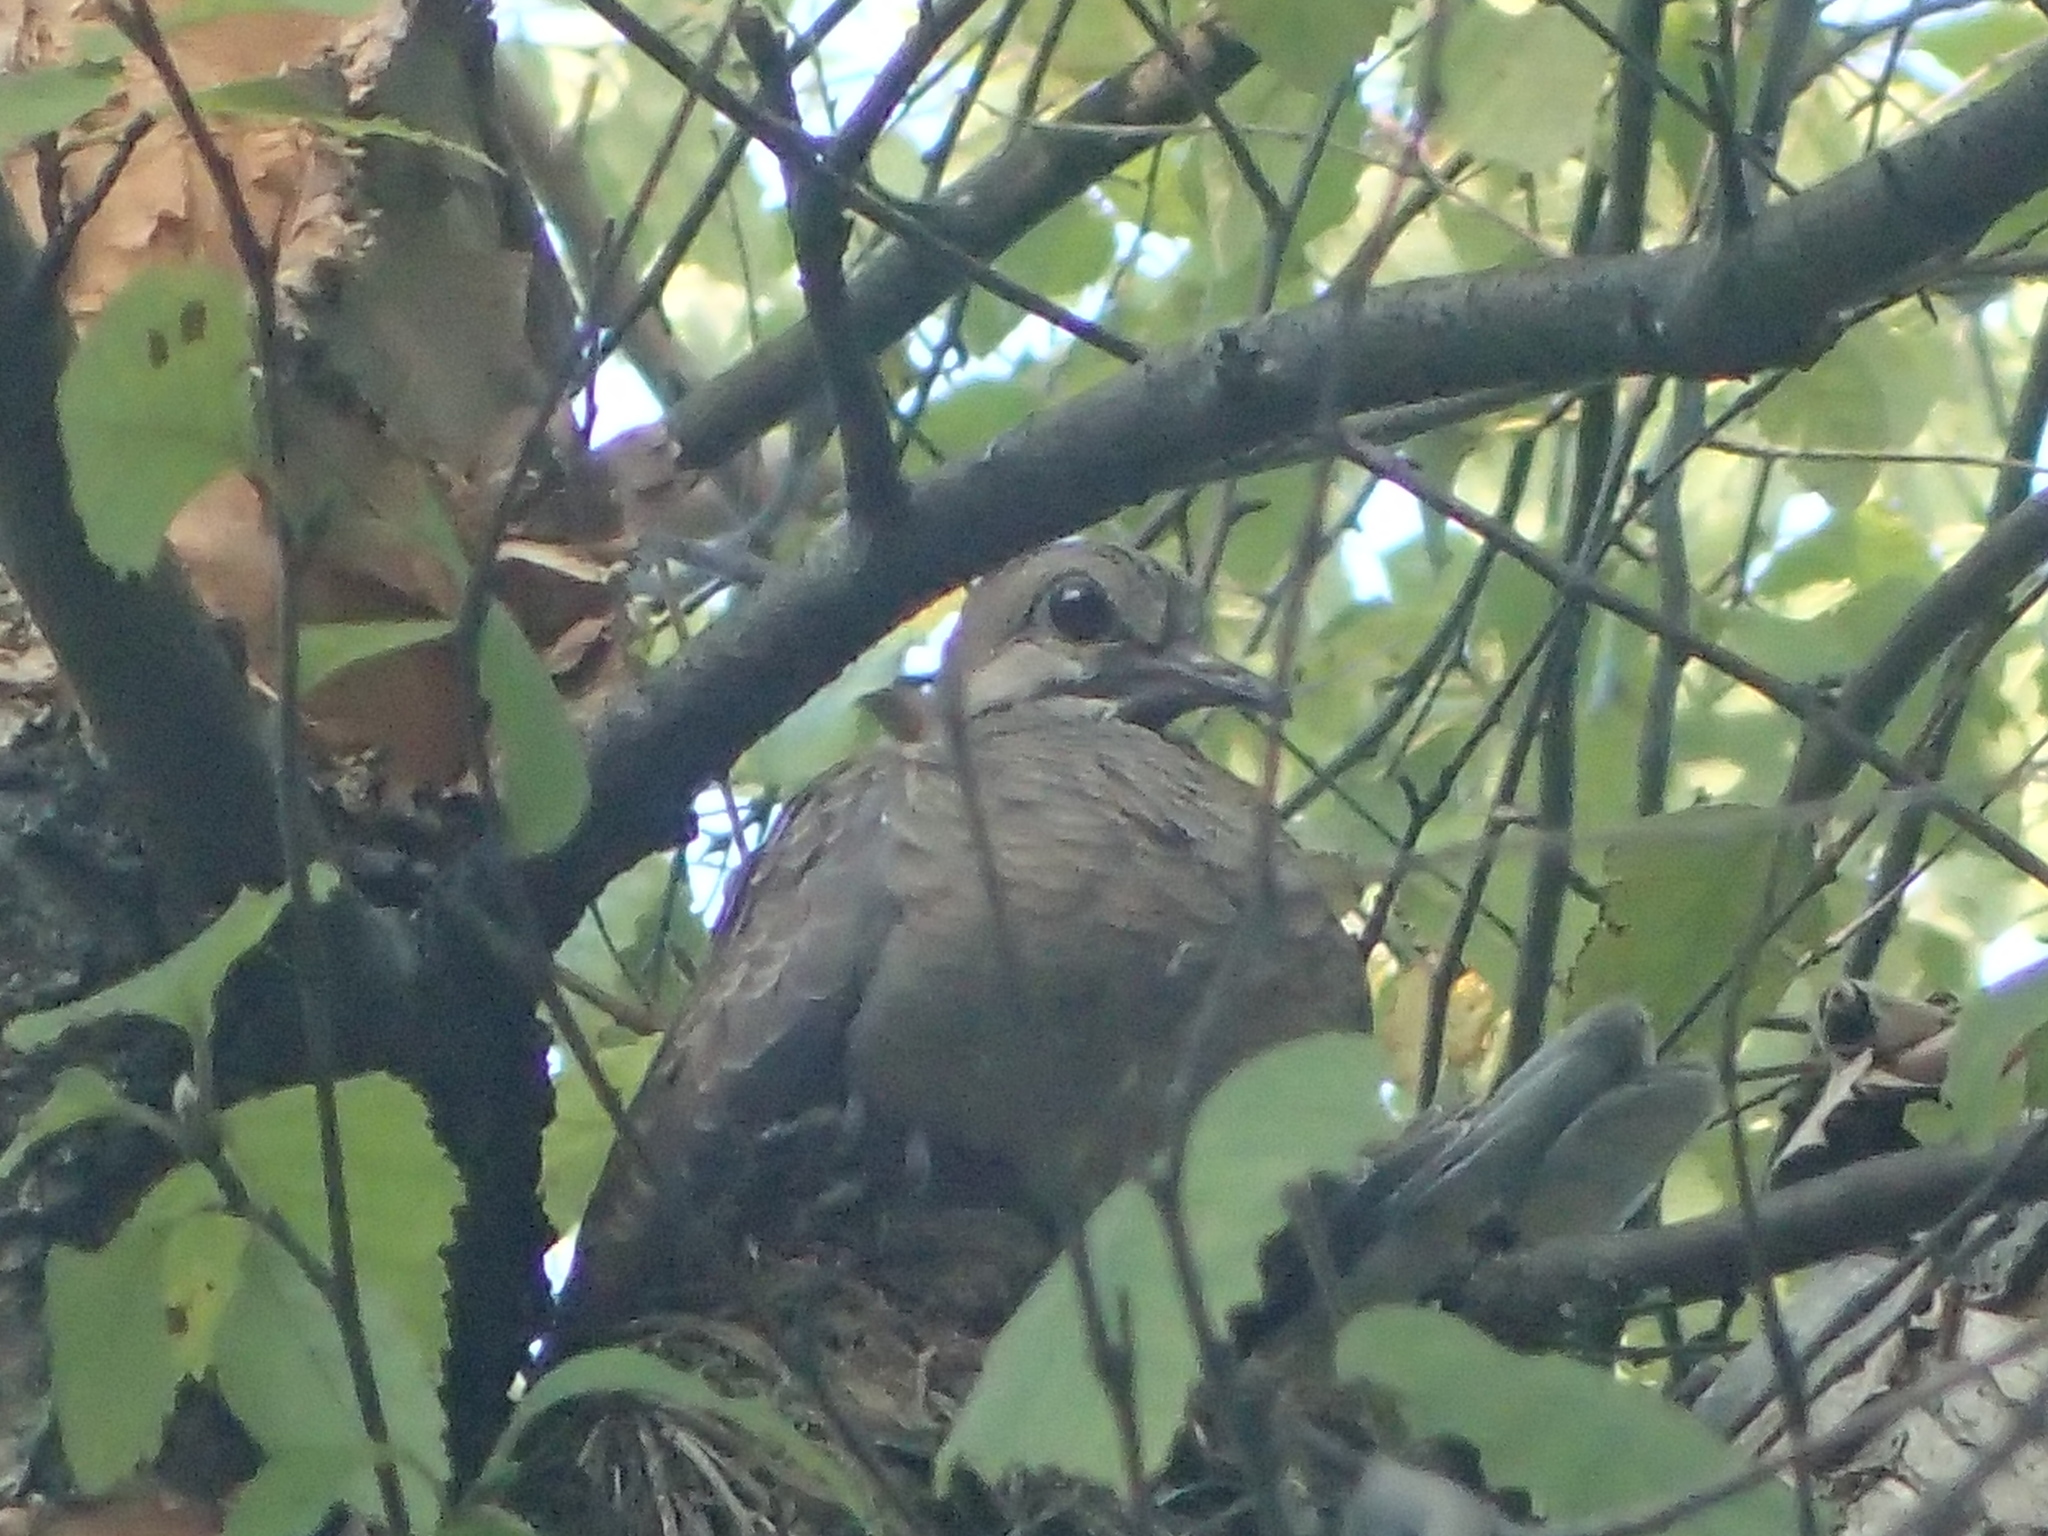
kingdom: Animalia
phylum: Chordata
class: Aves
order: Columbiformes
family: Columbidae
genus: Zenaida
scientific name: Zenaida macroura
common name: Mourning dove
